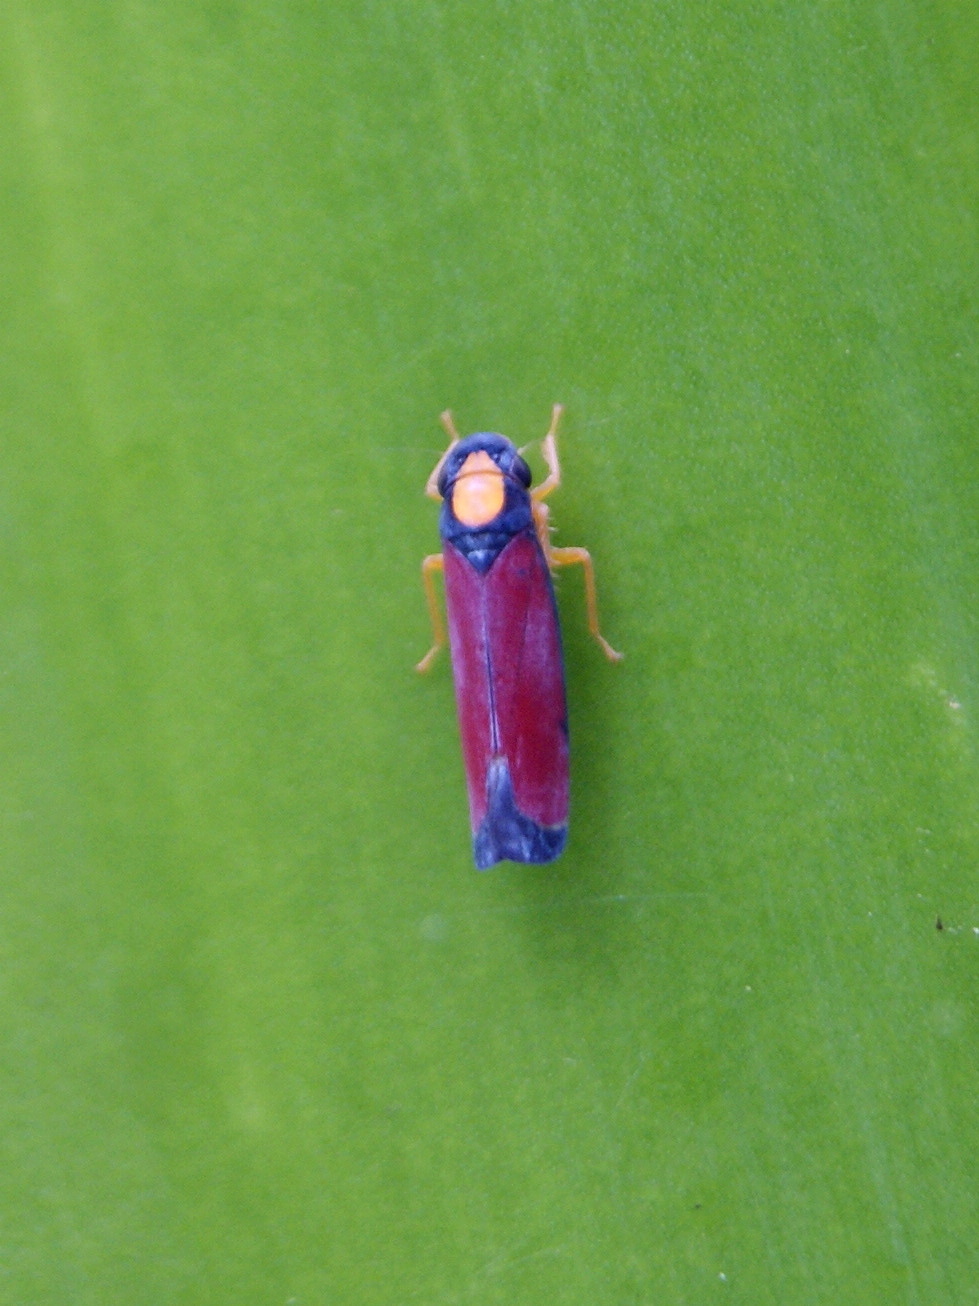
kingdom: Animalia
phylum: Arthropoda
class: Insecta
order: Hemiptera
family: Cicadellidae
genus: Erythrogonia
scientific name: Erythrogonia calva
